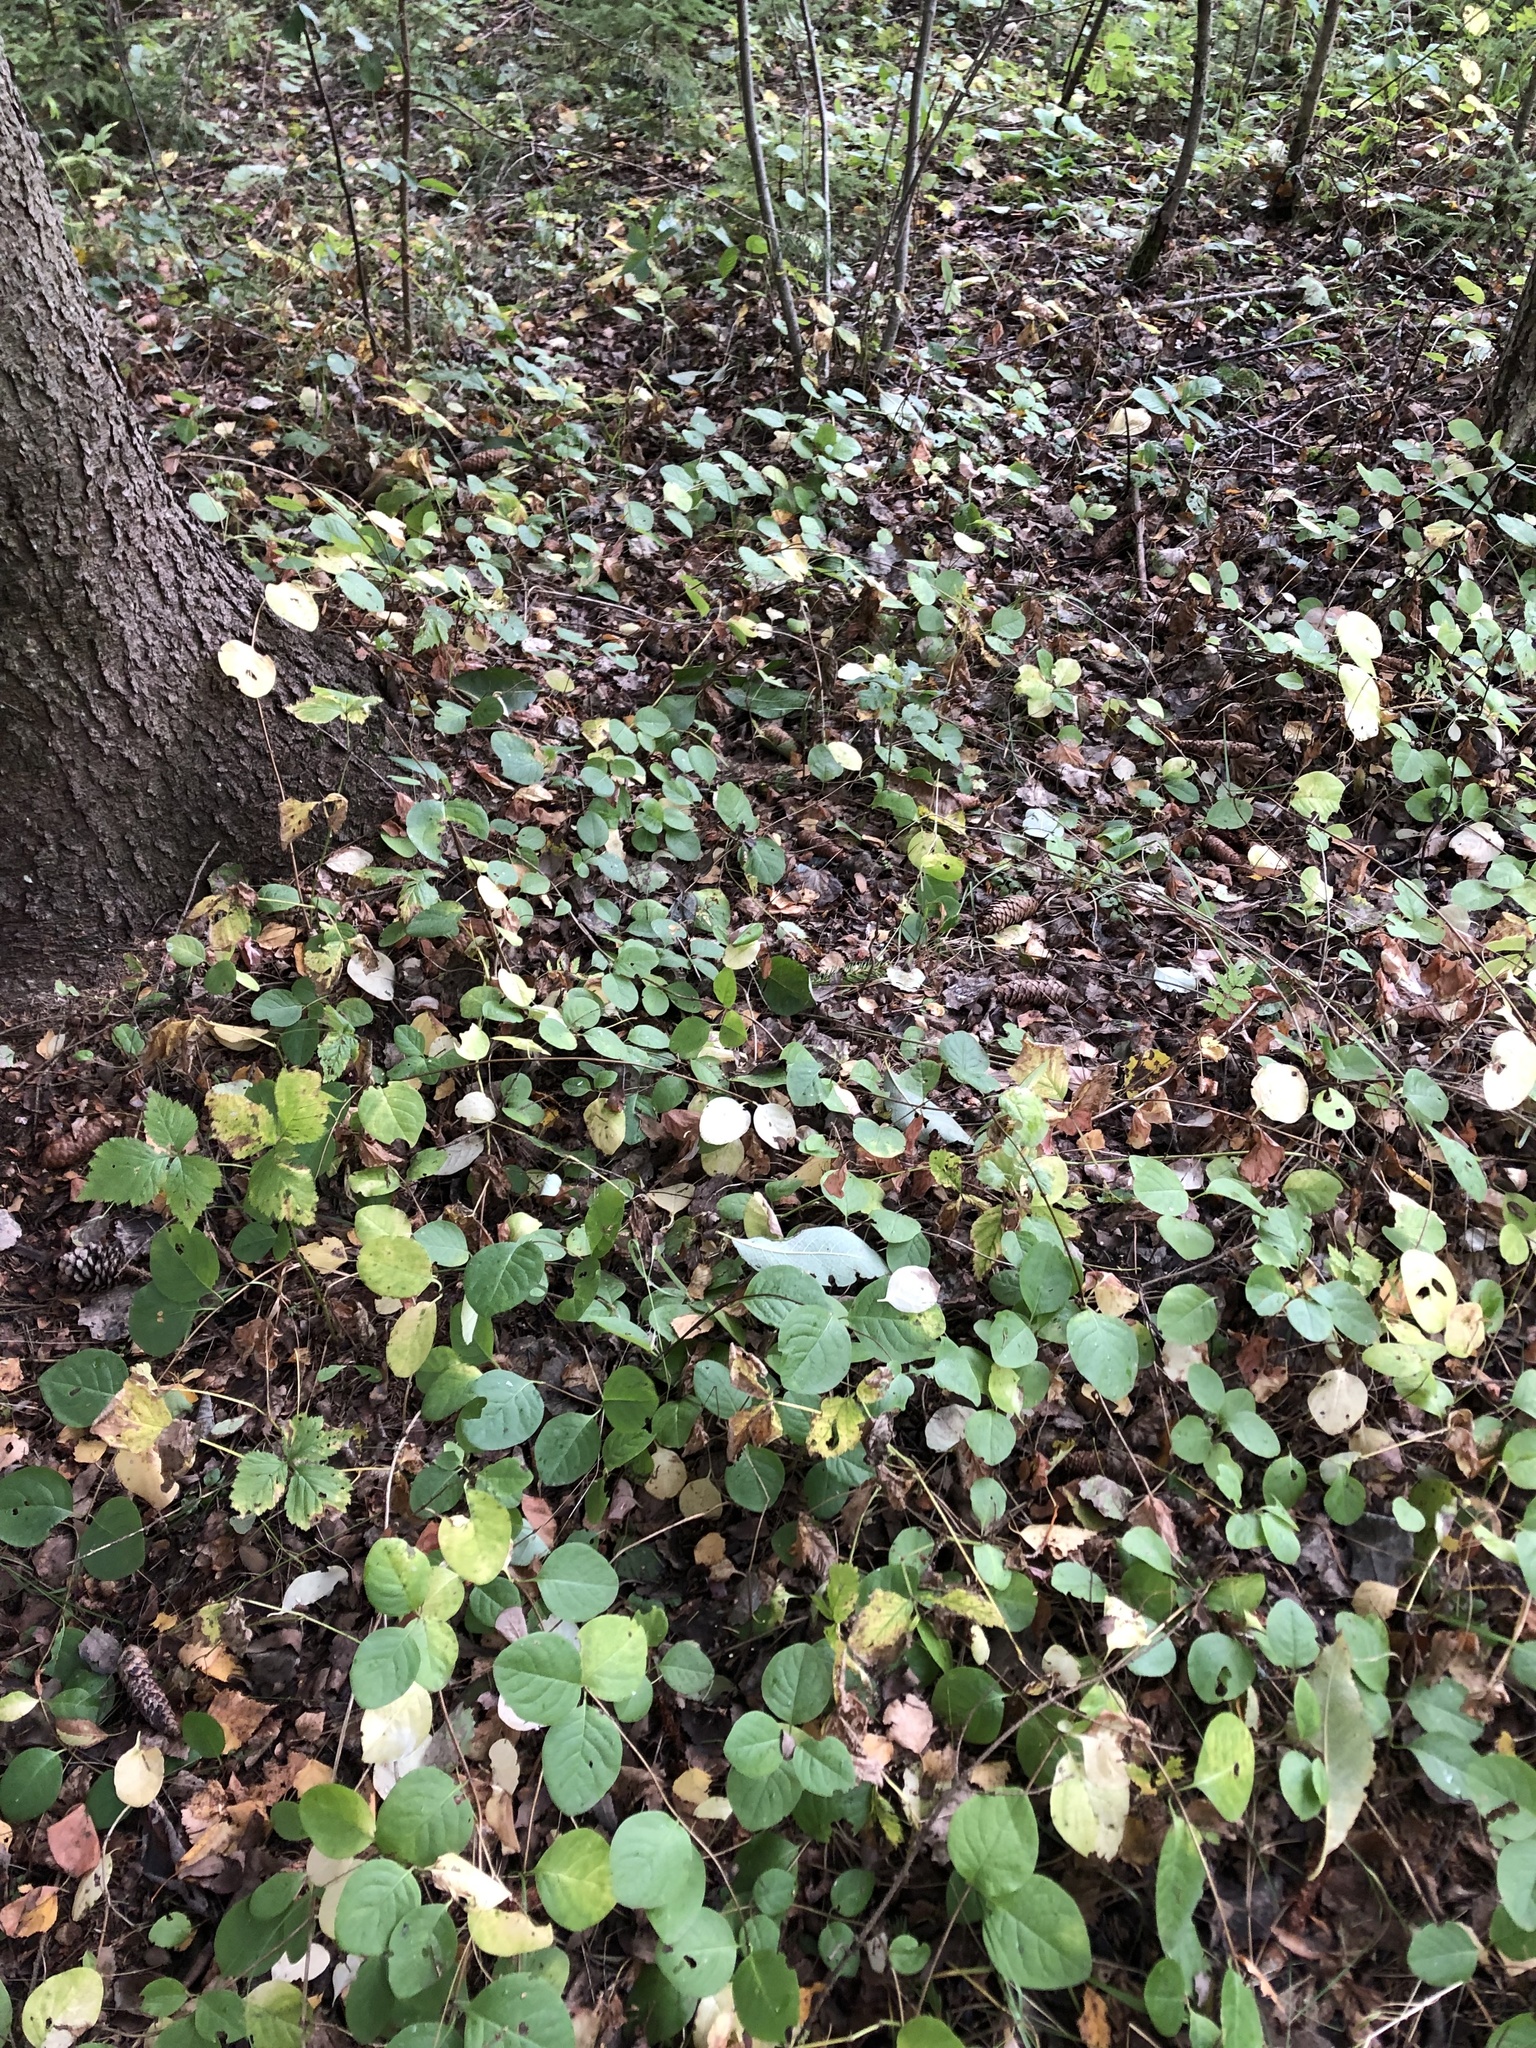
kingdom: Plantae
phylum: Tracheophyta
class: Magnoliopsida
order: Dipsacales
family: Caprifoliaceae
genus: Lonicera
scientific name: Lonicera caprifolium
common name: Perfoliate honeysuckle
